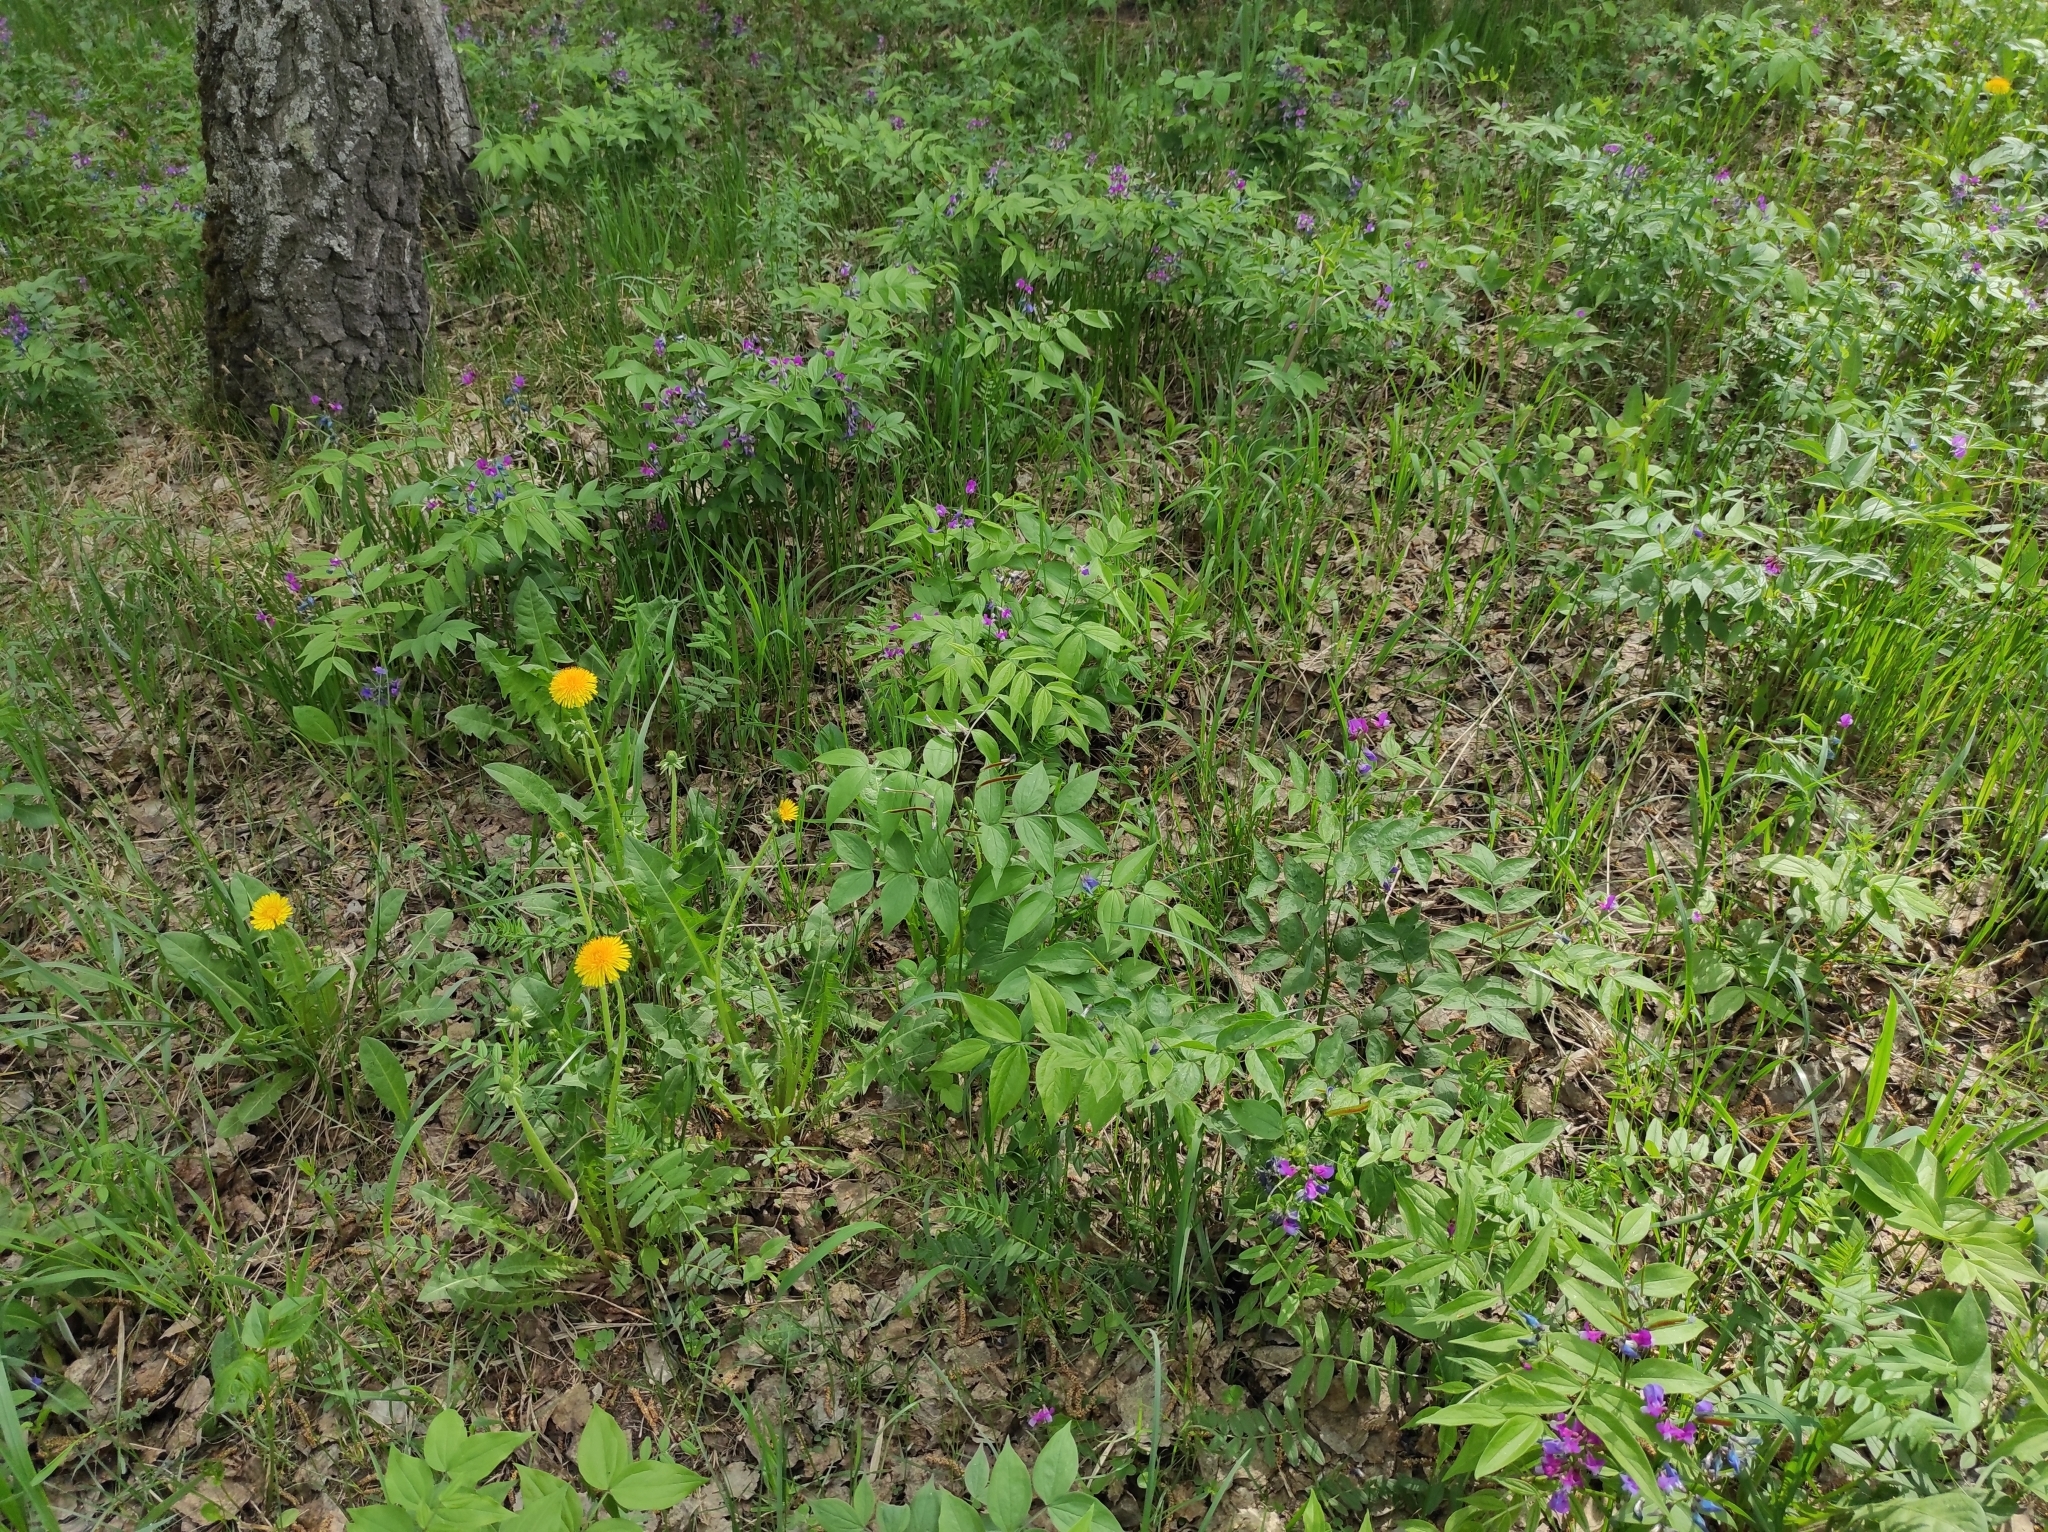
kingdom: Plantae
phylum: Tracheophyta
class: Magnoliopsida
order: Fabales
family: Fabaceae
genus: Lathyrus
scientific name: Lathyrus vernus
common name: Spring pea
